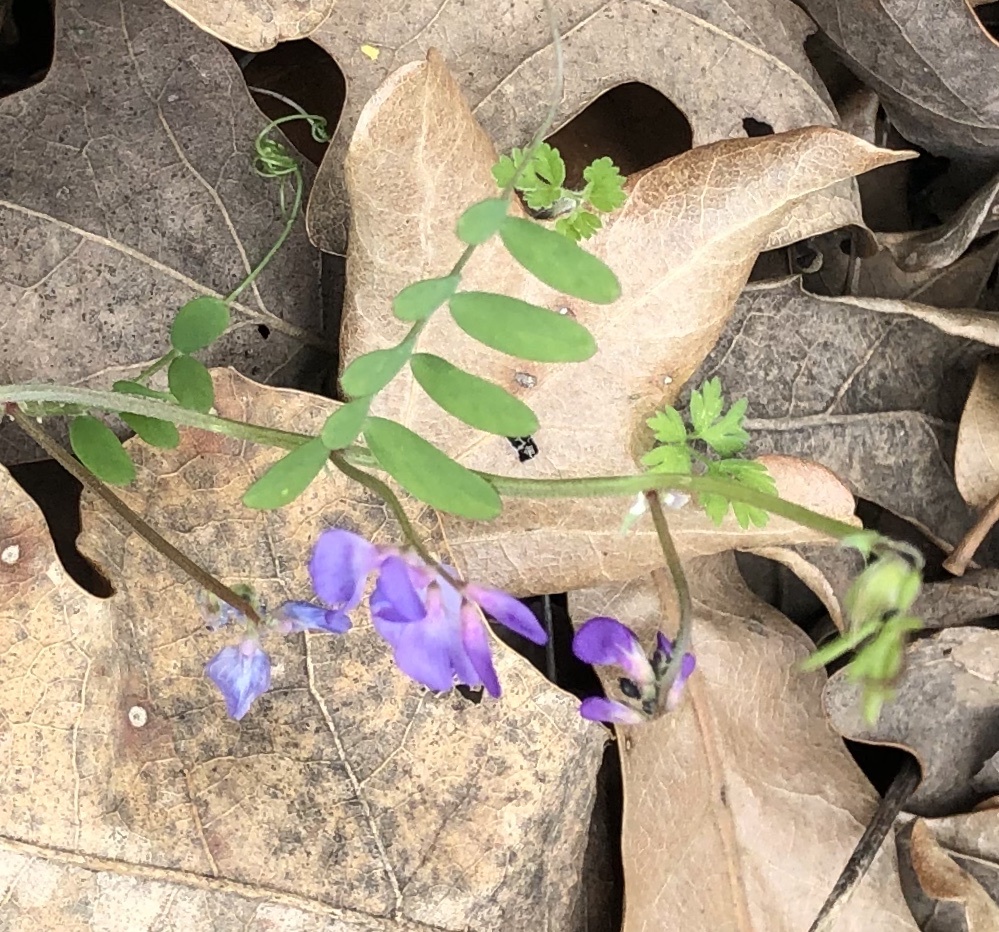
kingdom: Plantae
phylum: Tracheophyta
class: Magnoliopsida
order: Fabales
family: Fabaceae
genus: Vicia
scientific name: Vicia ludoviciana
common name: Louisiana vetch
